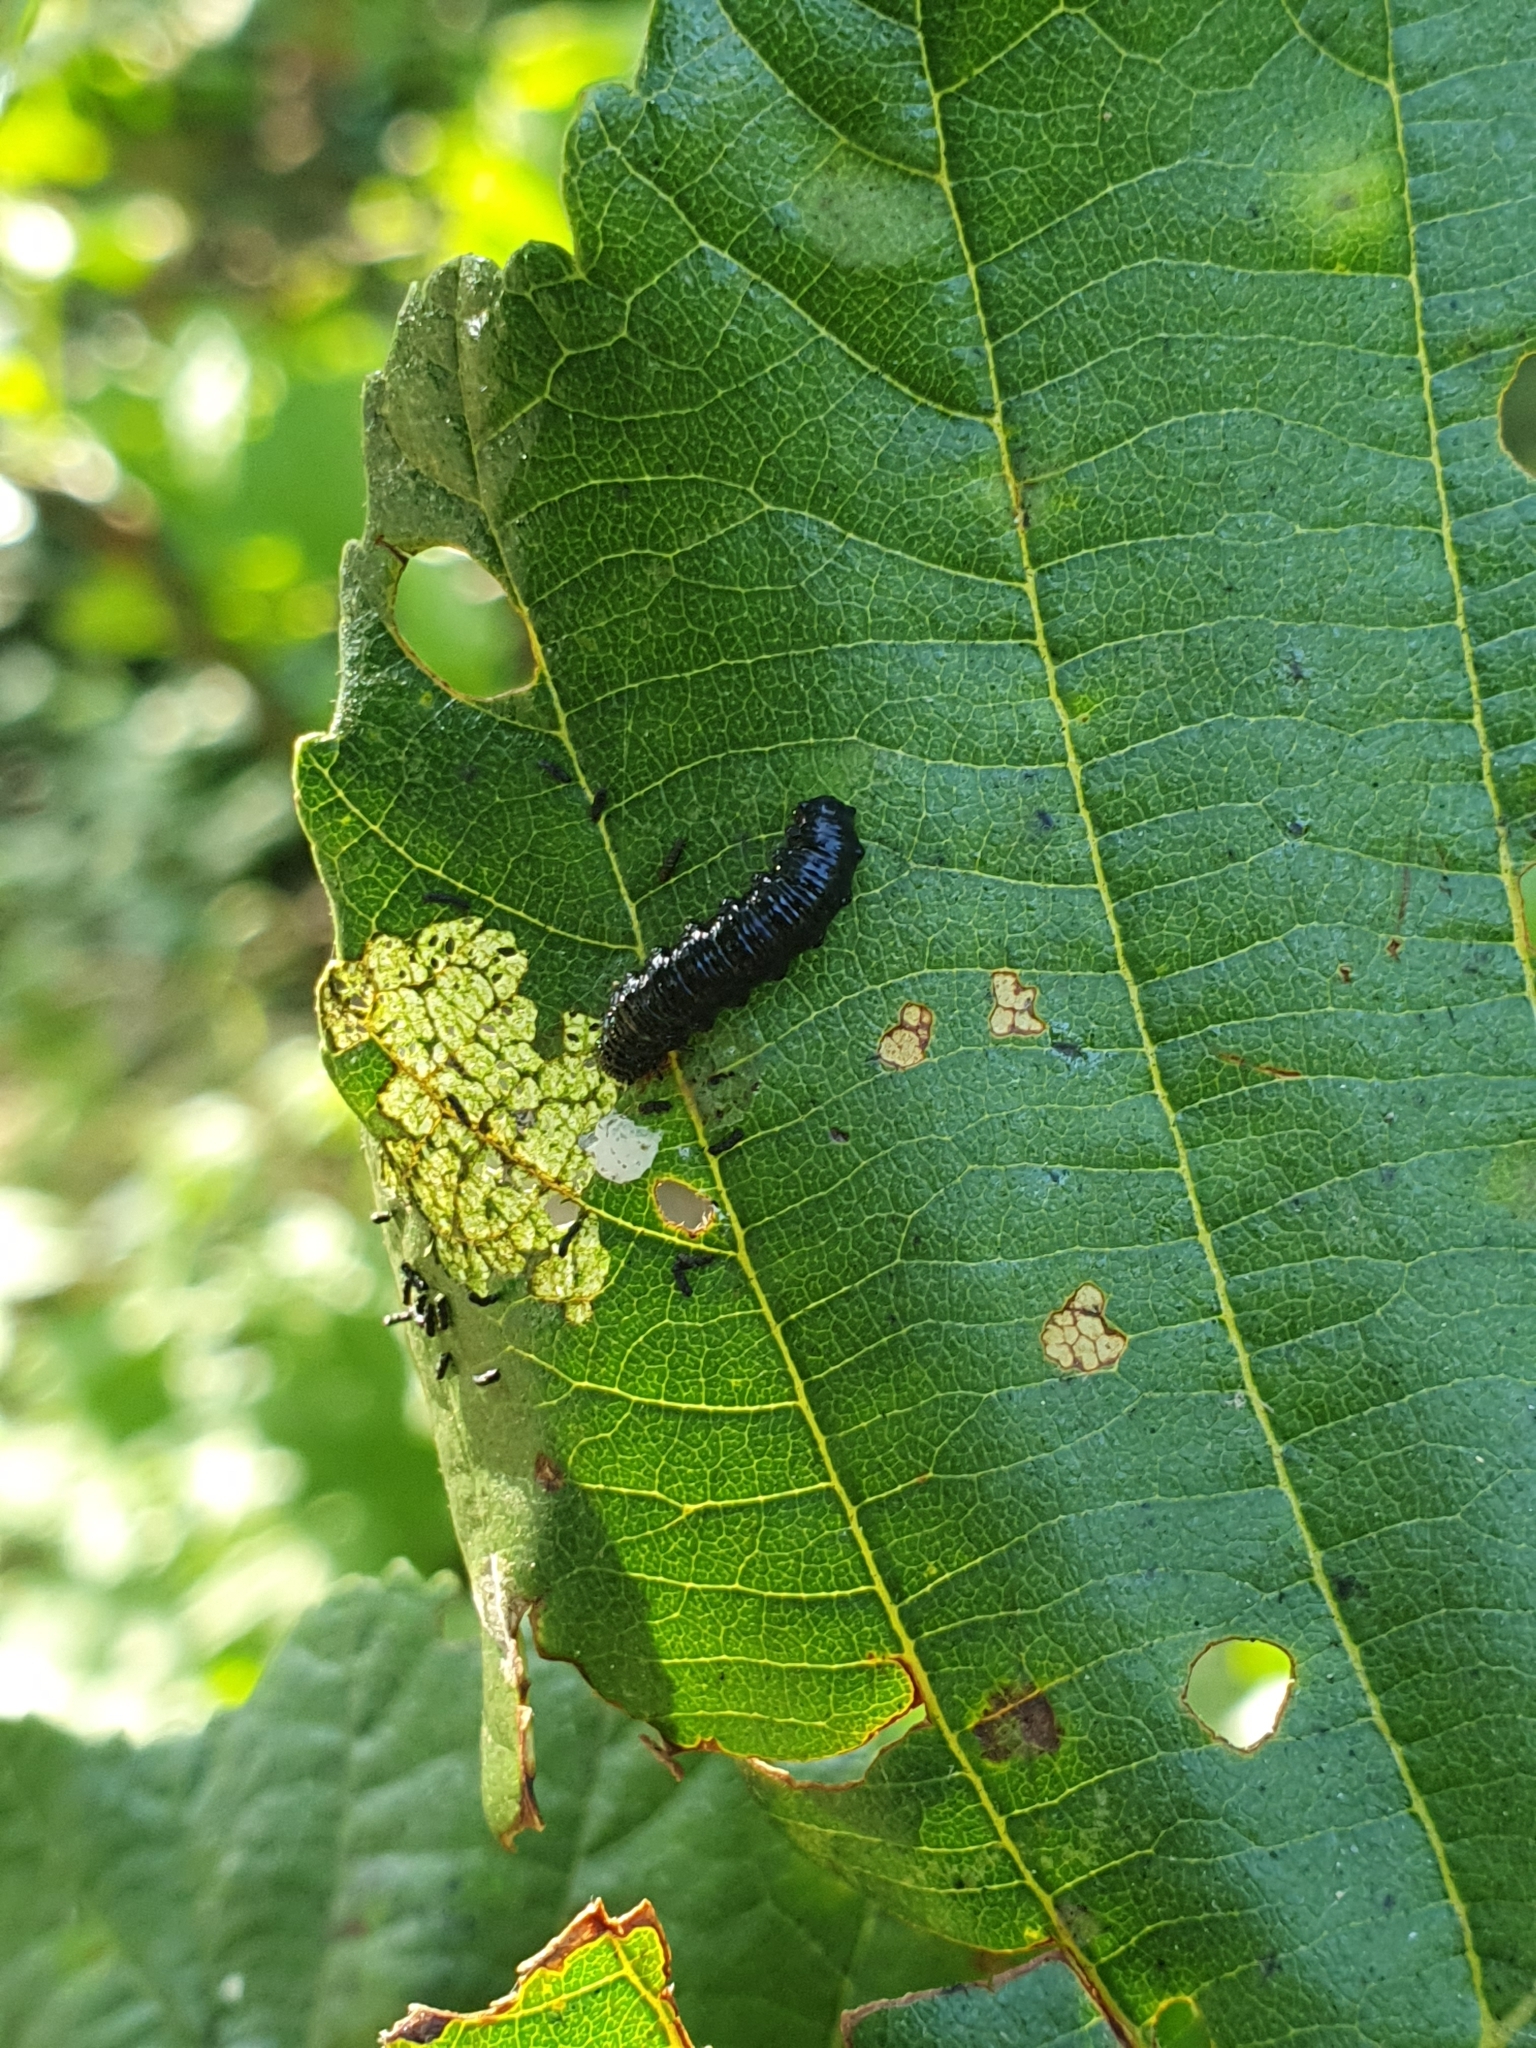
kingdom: Animalia
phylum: Arthropoda
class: Insecta
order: Coleoptera
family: Chrysomelidae
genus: Agelastica
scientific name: Agelastica alni
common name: Alder leaf beetle
